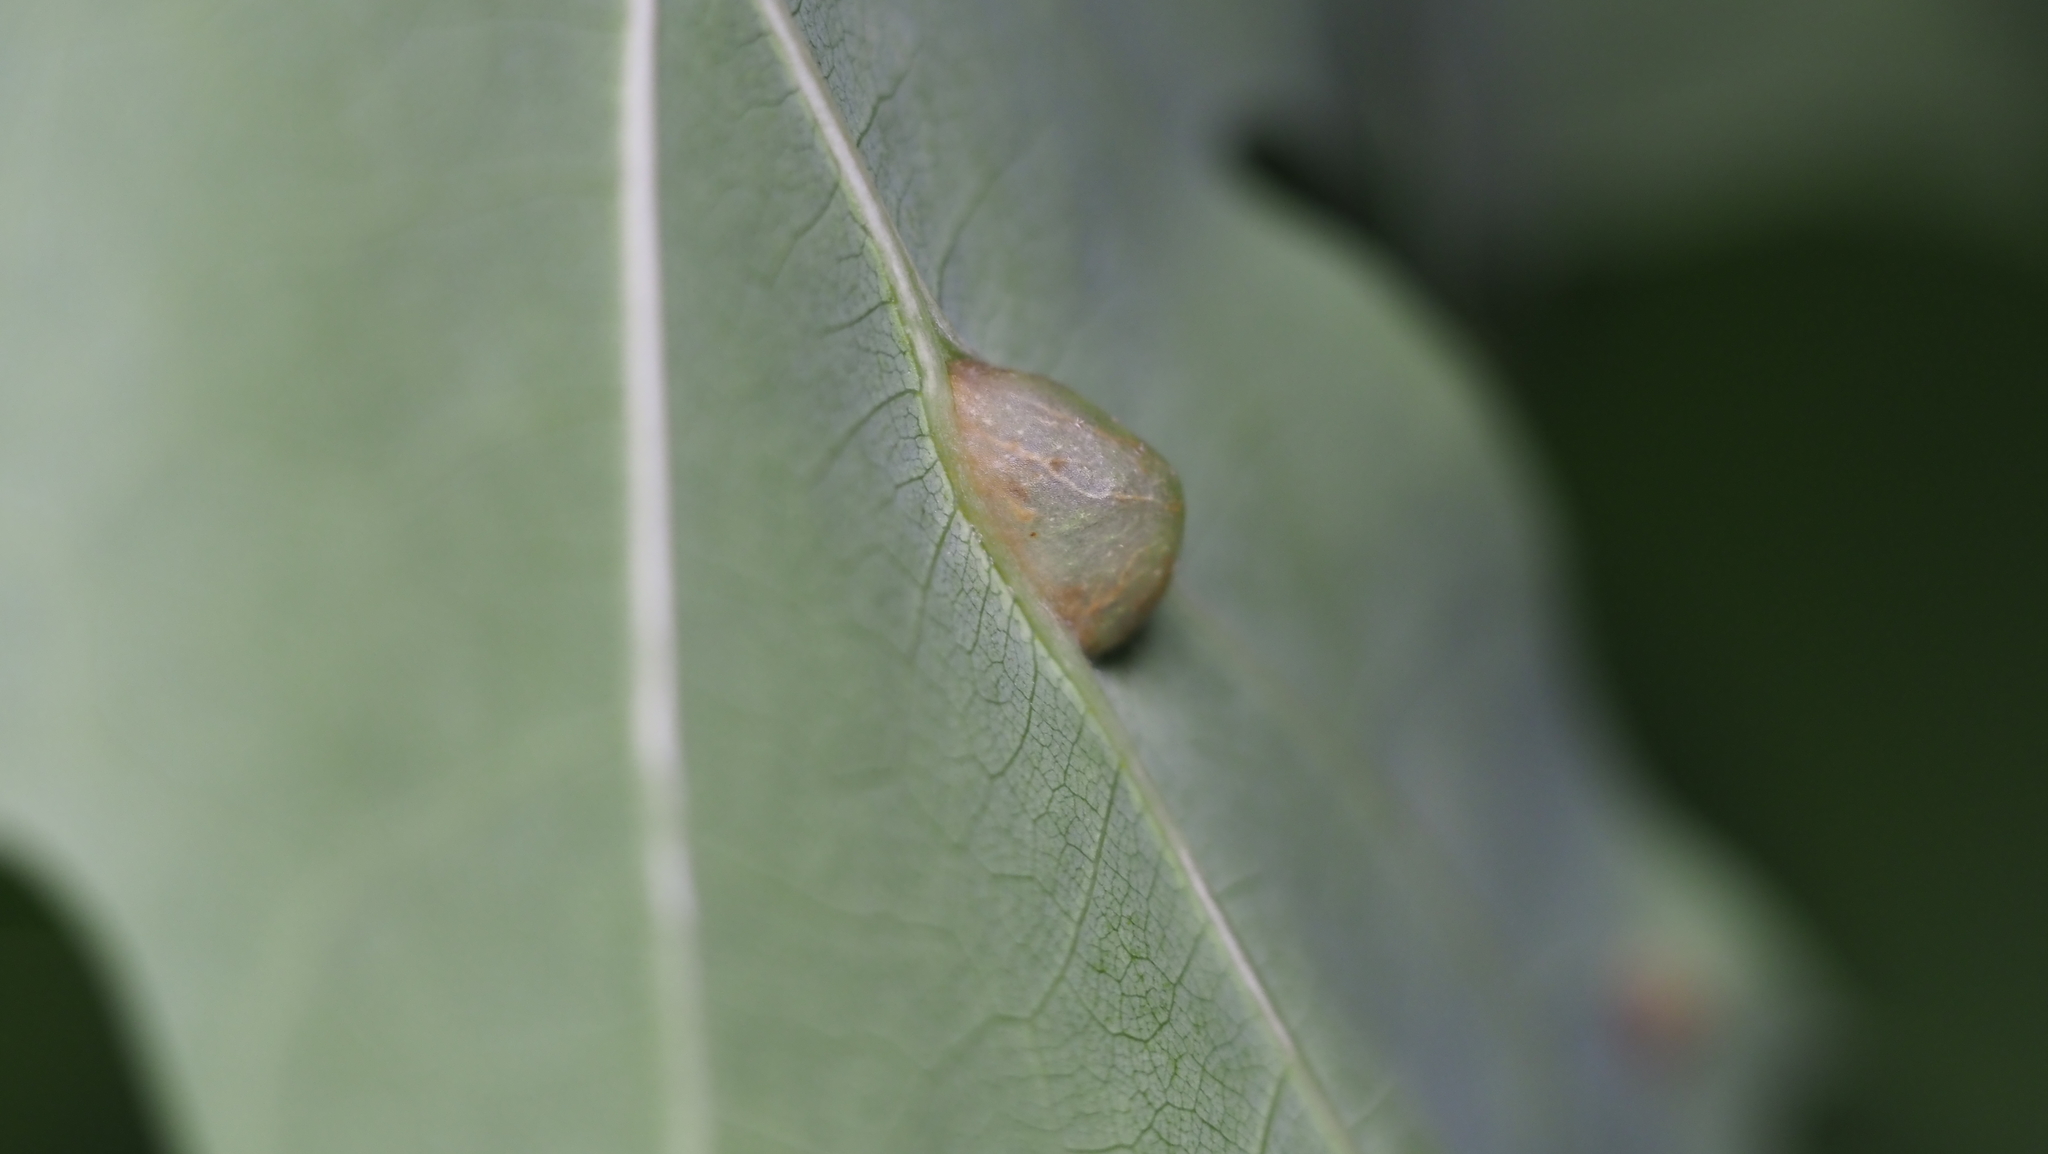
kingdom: Animalia
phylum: Arthropoda
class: Insecta
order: Hymenoptera
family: Cynipidae
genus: Dryocosmus
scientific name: Dryocosmus
